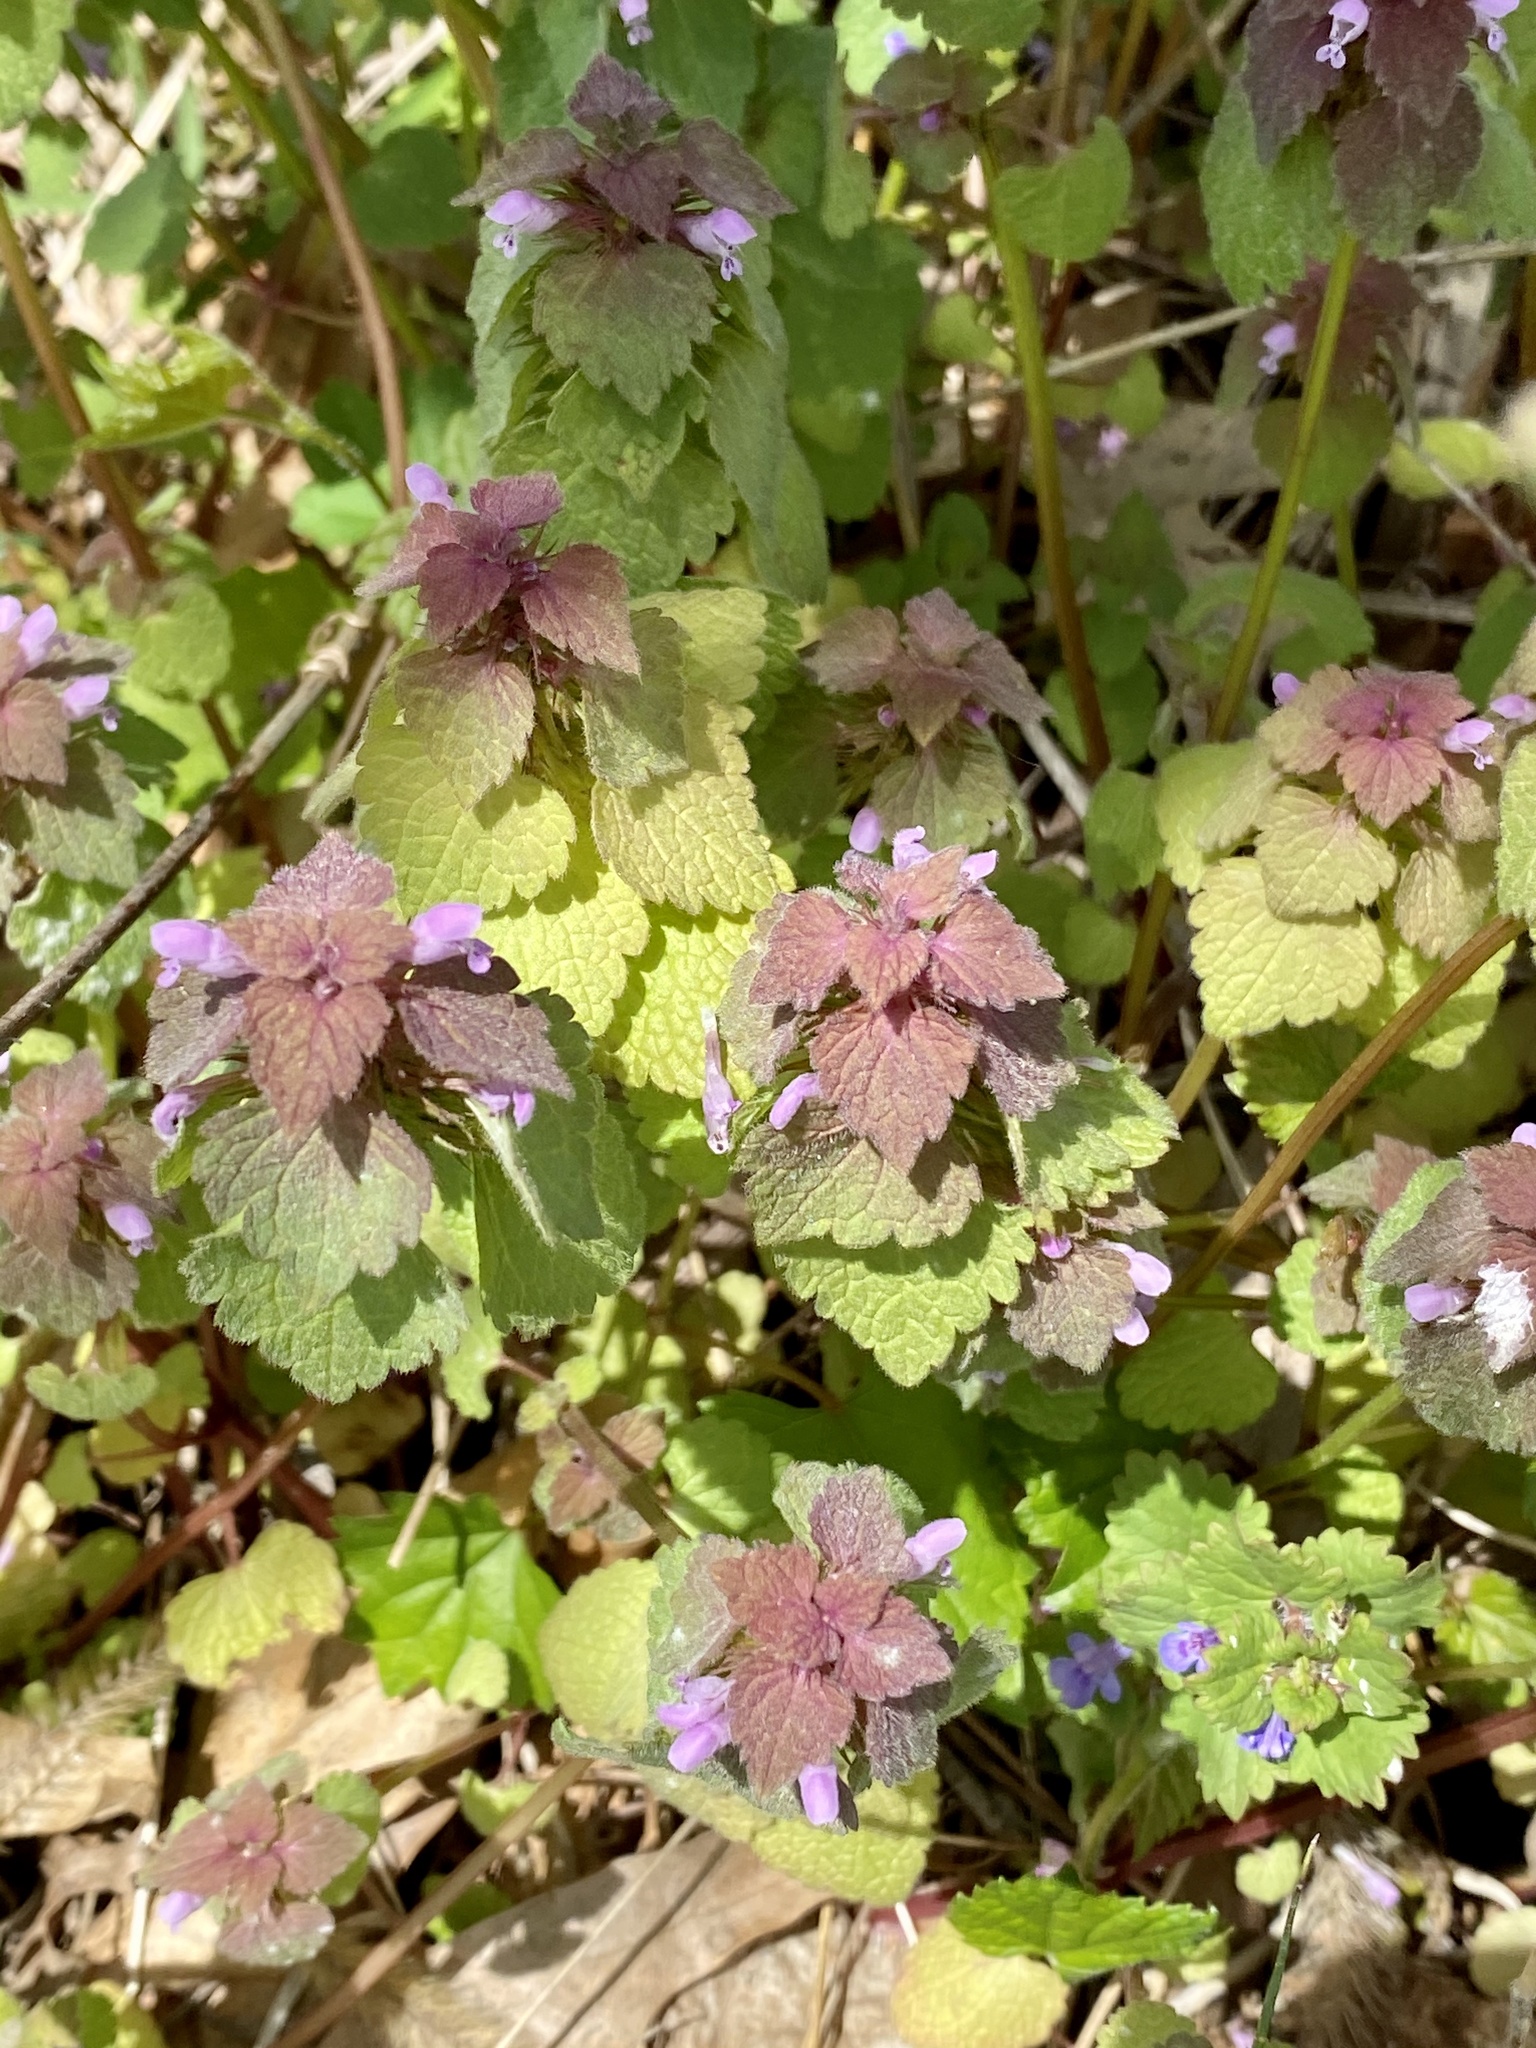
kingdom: Plantae
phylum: Tracheophyta
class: Magnoliopsida
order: Lamiales
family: Lamiaceae
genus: Lamium
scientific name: Lamium purpureum
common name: Red dead-nettle
